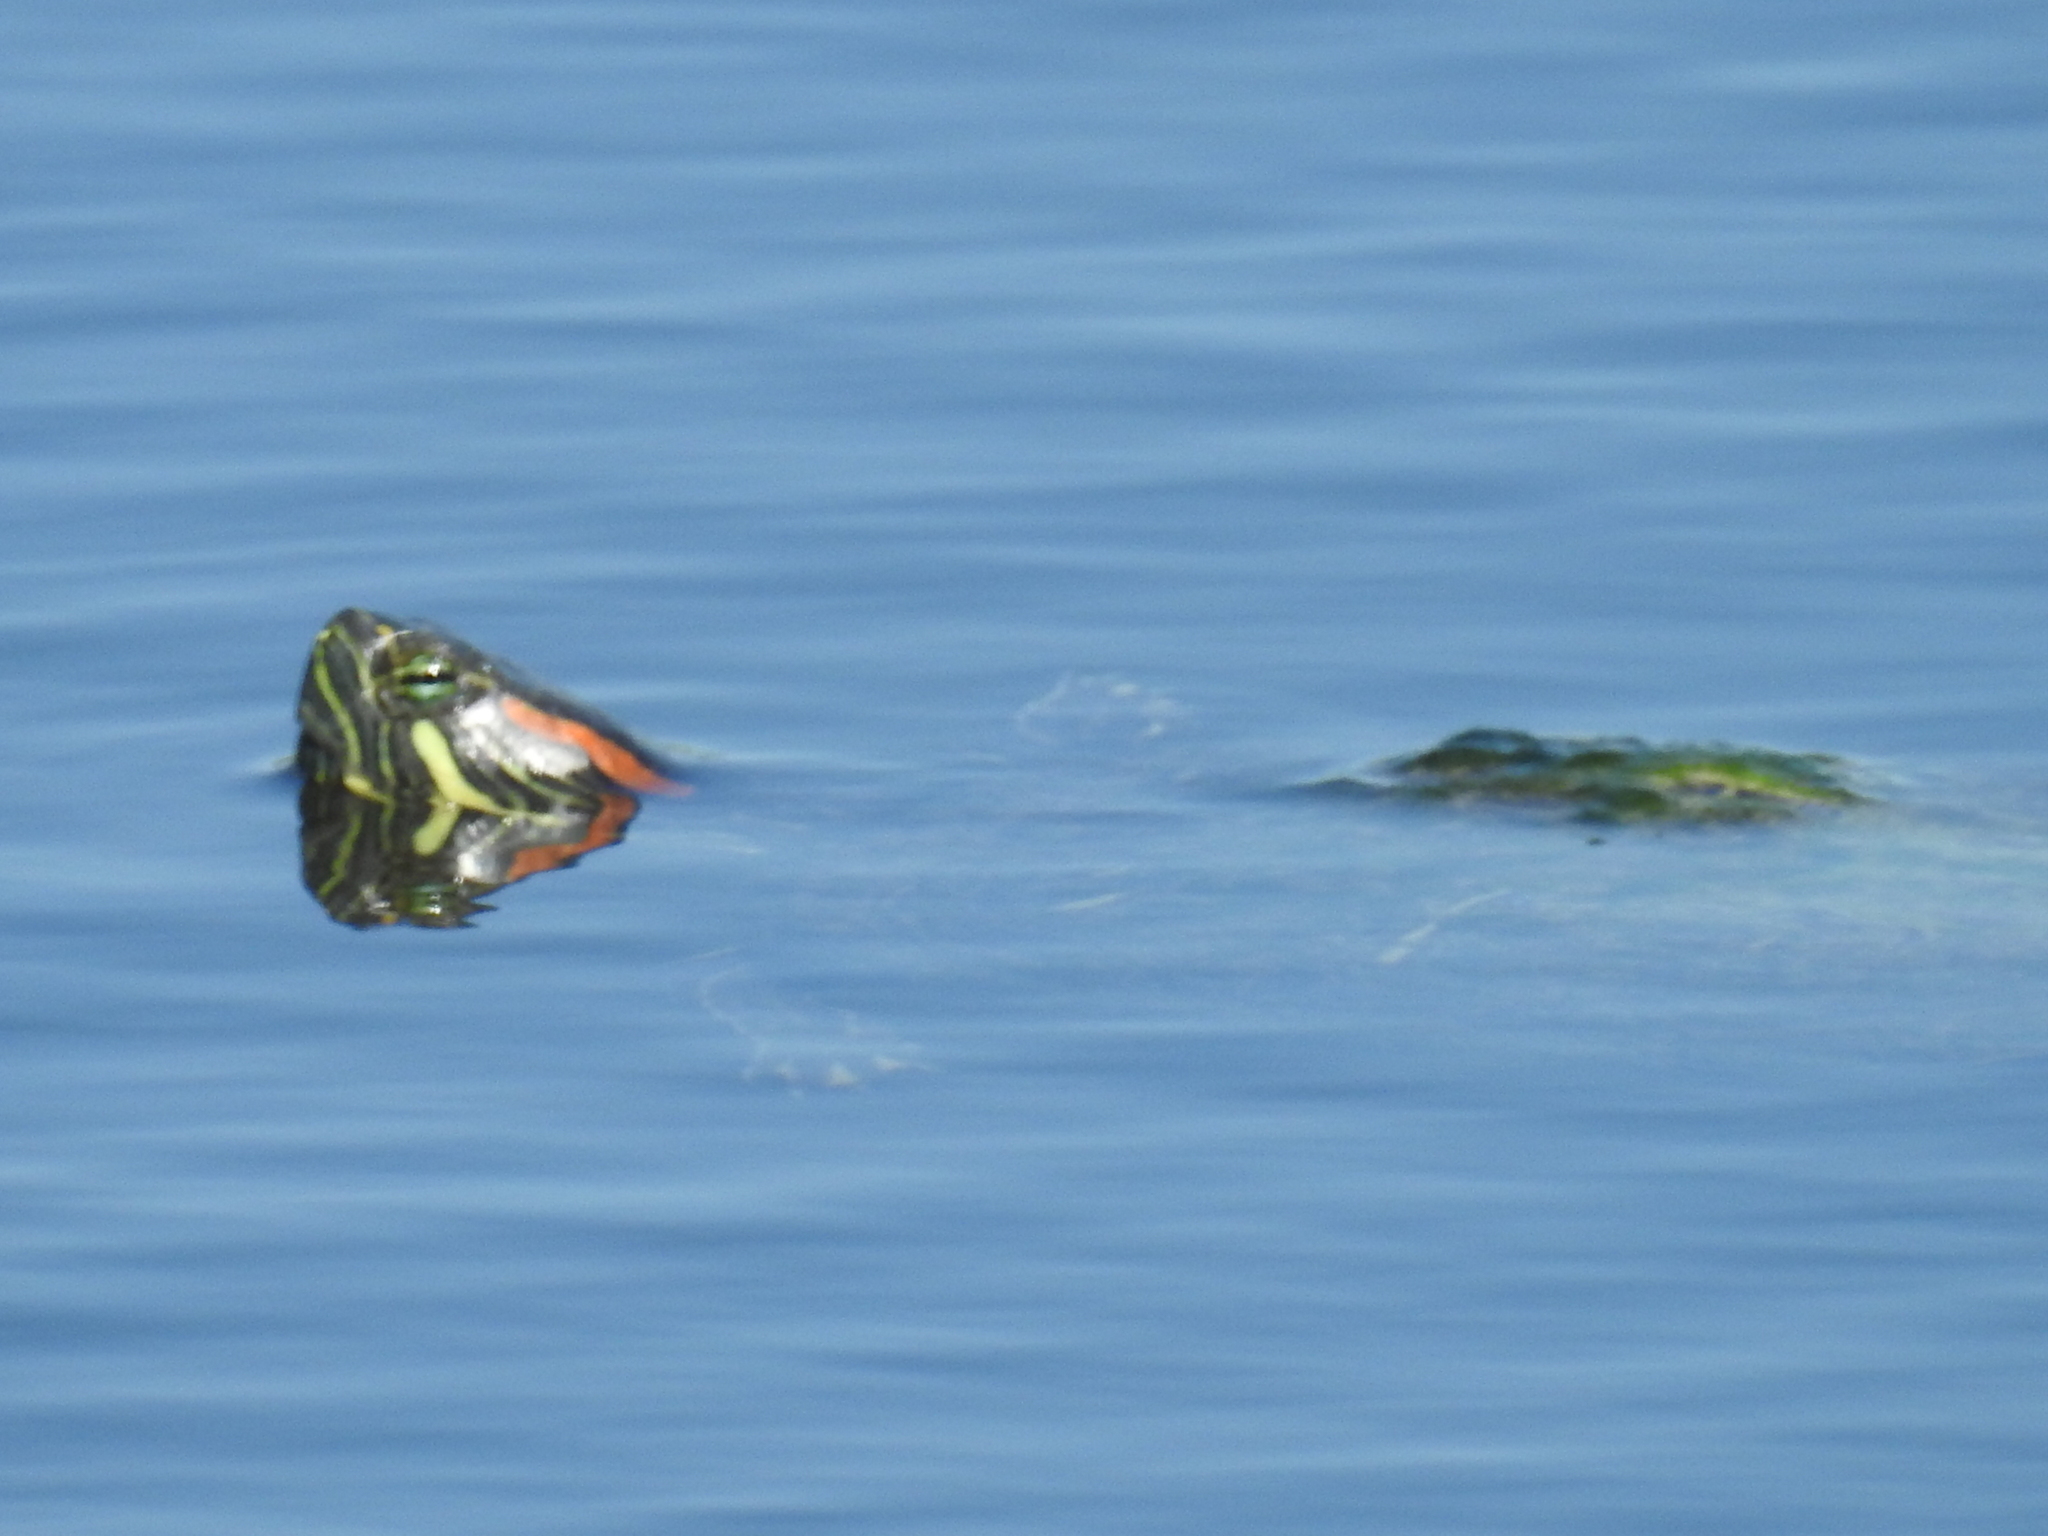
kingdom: Animalia
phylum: Chordata
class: Testudines
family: Emydidae
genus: Trachemys
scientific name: Trachemys scripta
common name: Slider
